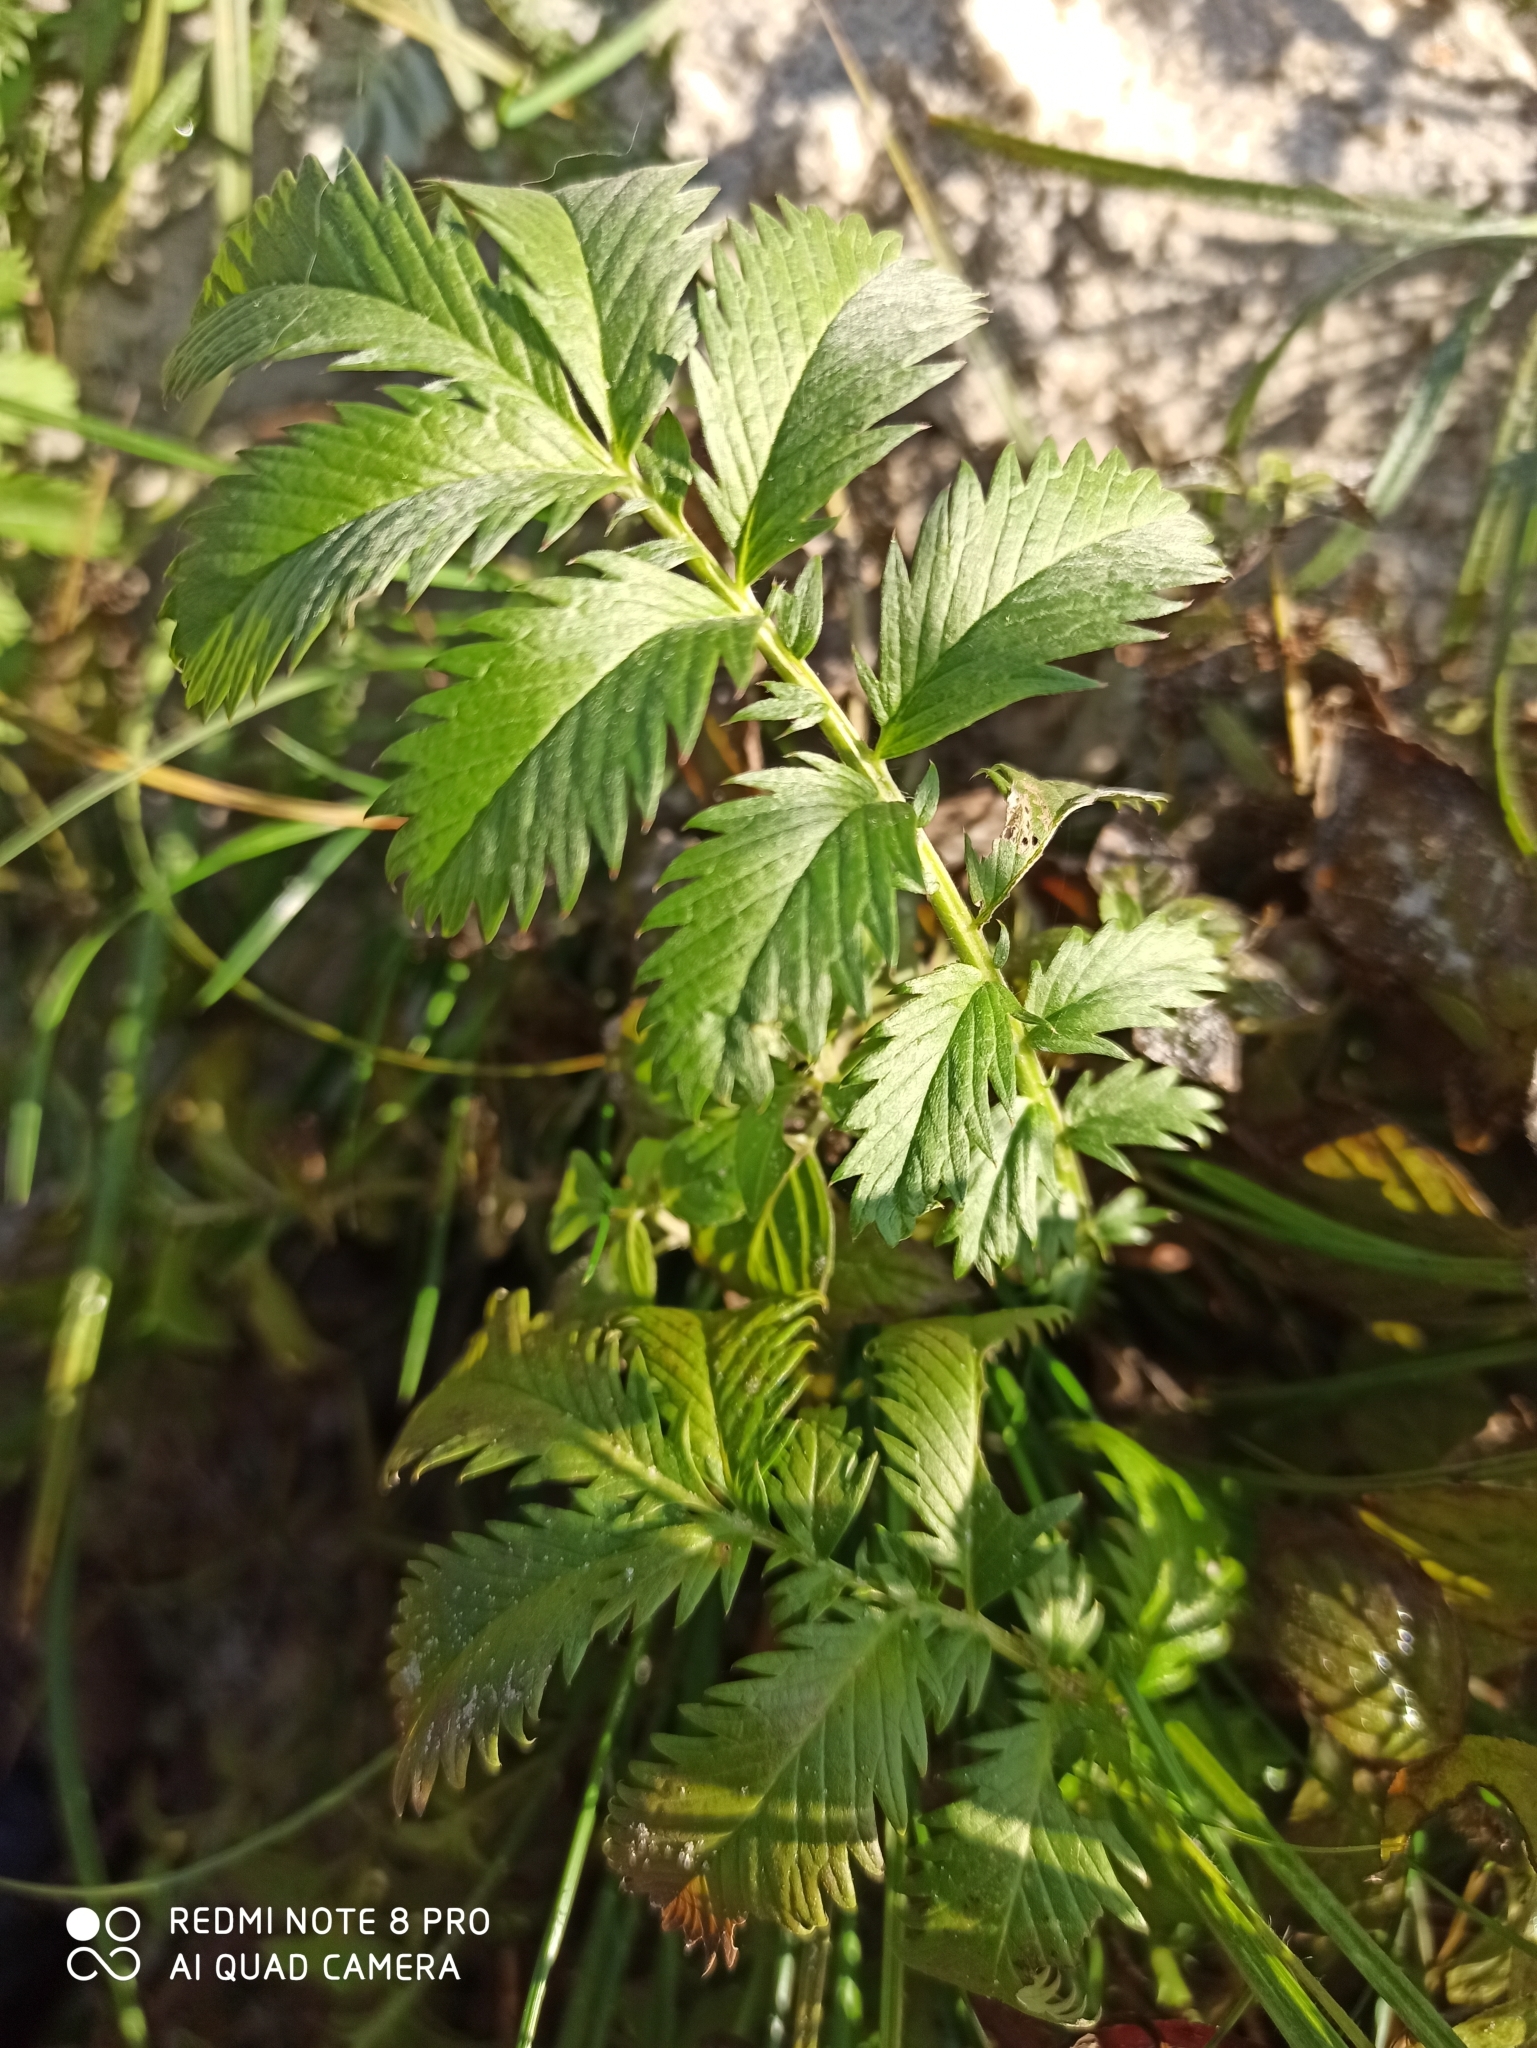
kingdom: Plantae
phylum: Tracheophyta
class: Magnoliopsida
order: Rosales
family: Rosaceae
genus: Argentina
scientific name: Argentina anserina
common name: Common silverweed
